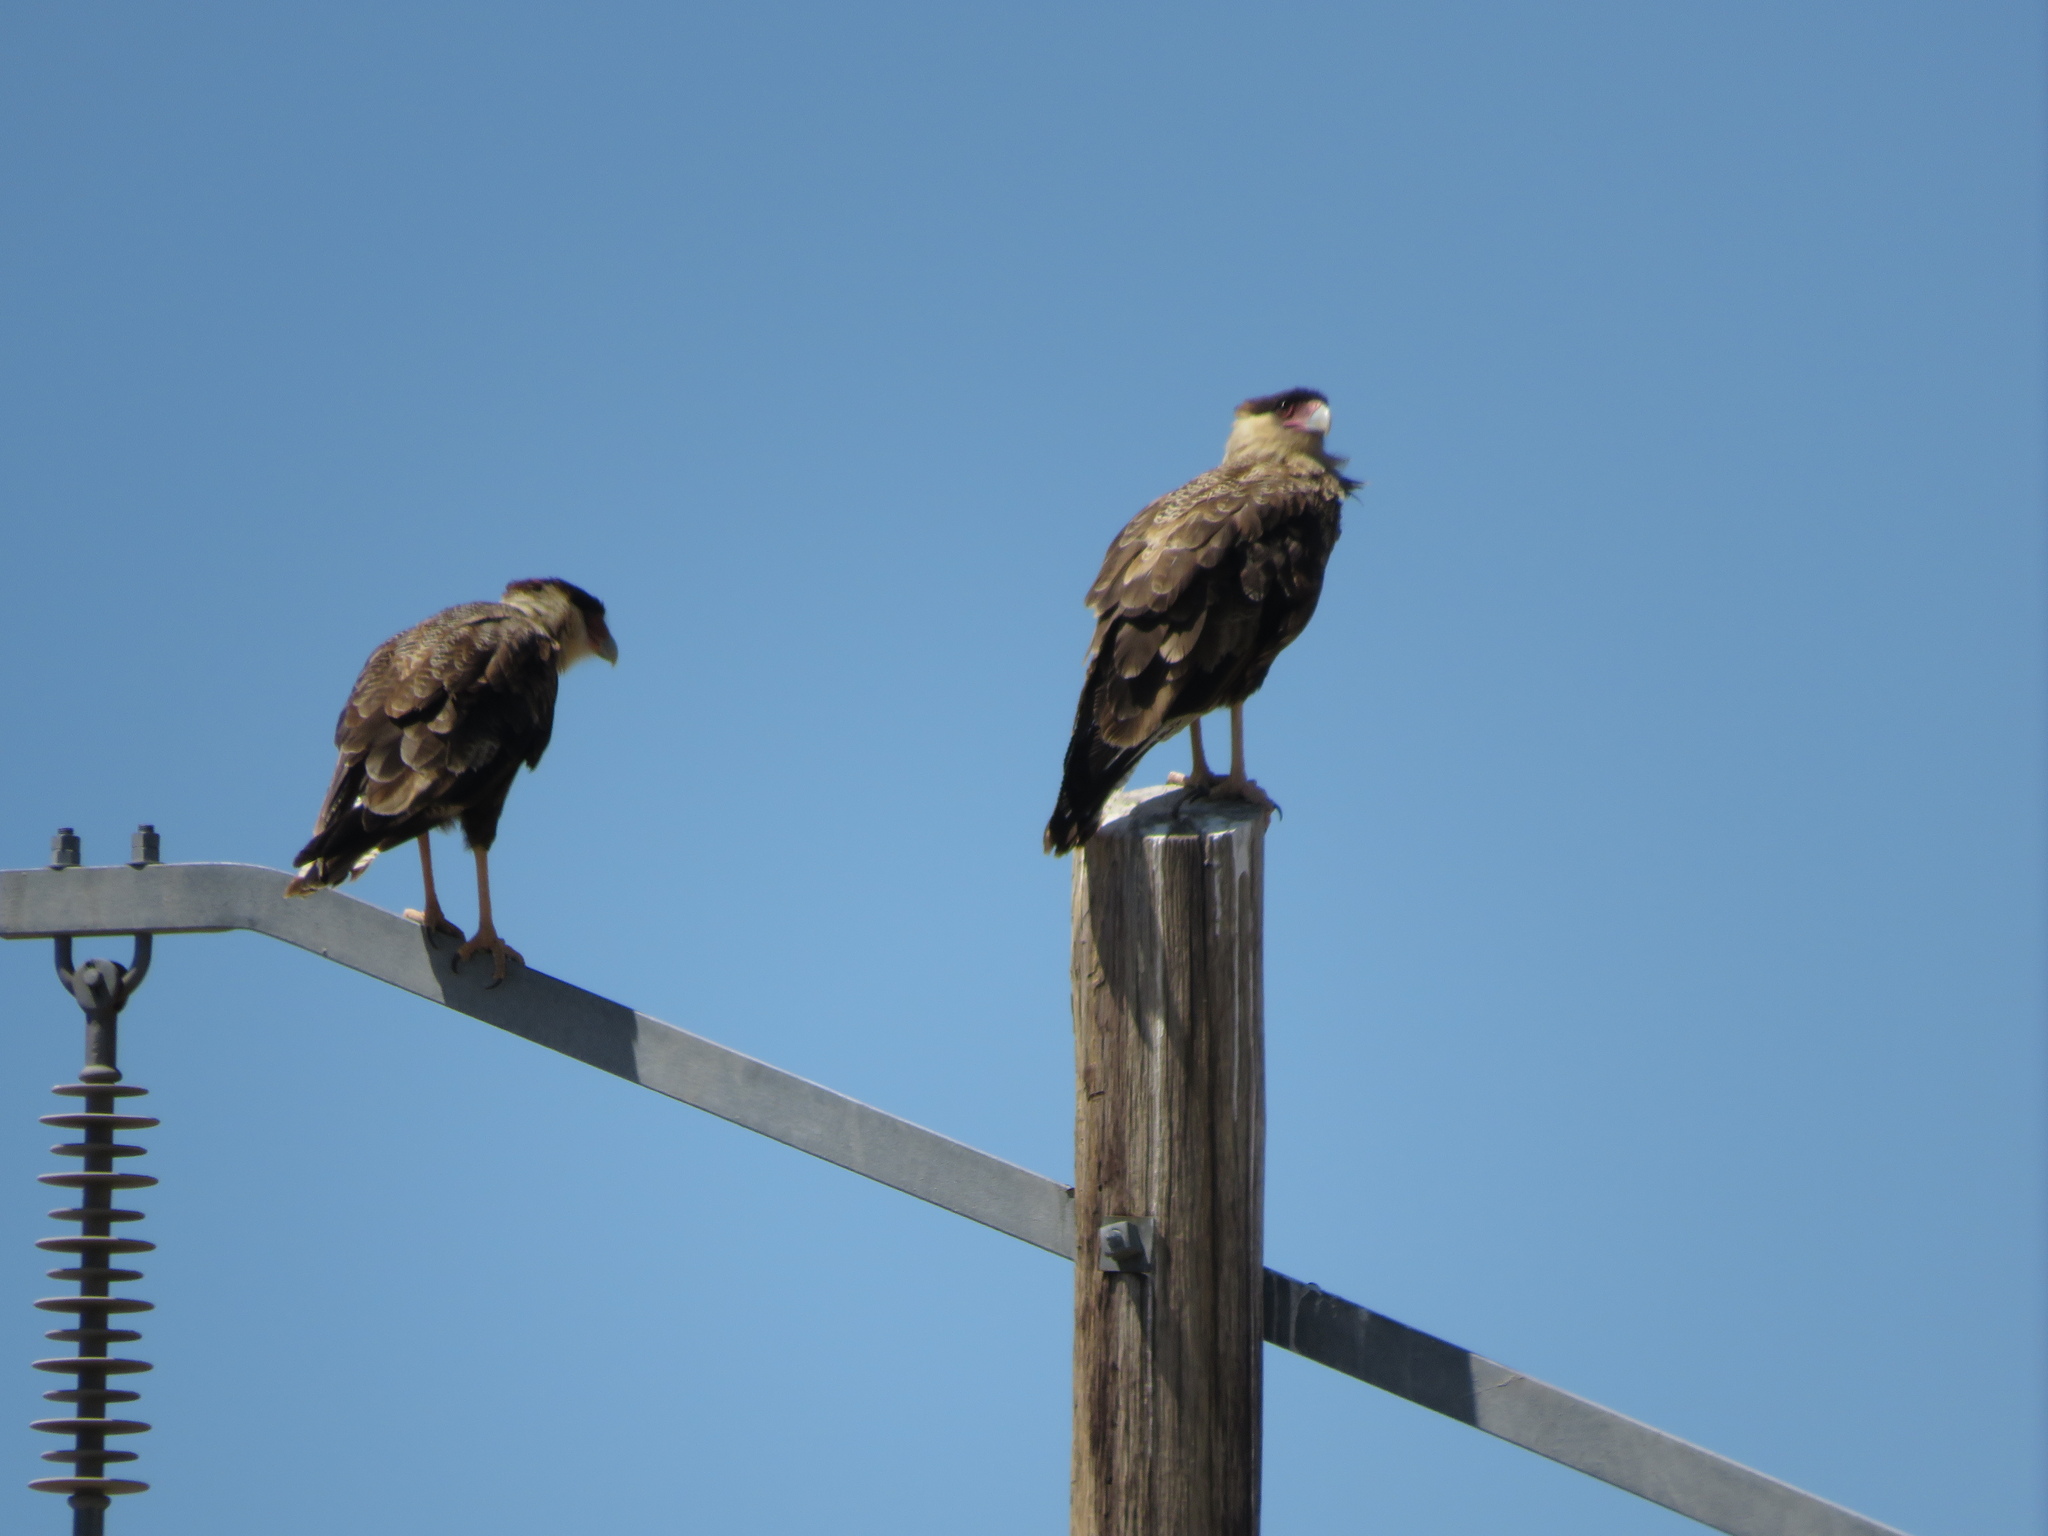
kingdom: Animalia
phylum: Chordata
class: Aves
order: Falconiformes
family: Falconidae
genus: Caracara
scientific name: Caracara plancus
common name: Southern caracara
